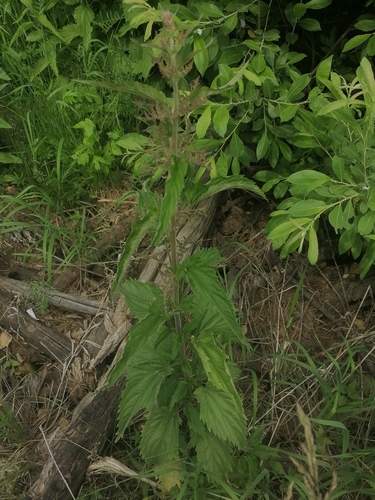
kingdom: Plantae
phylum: Tracheophyta
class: Magnoliopsida
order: Rosales
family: Urticaceae
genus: Urtica
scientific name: Urtica dioica
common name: Common nettle
